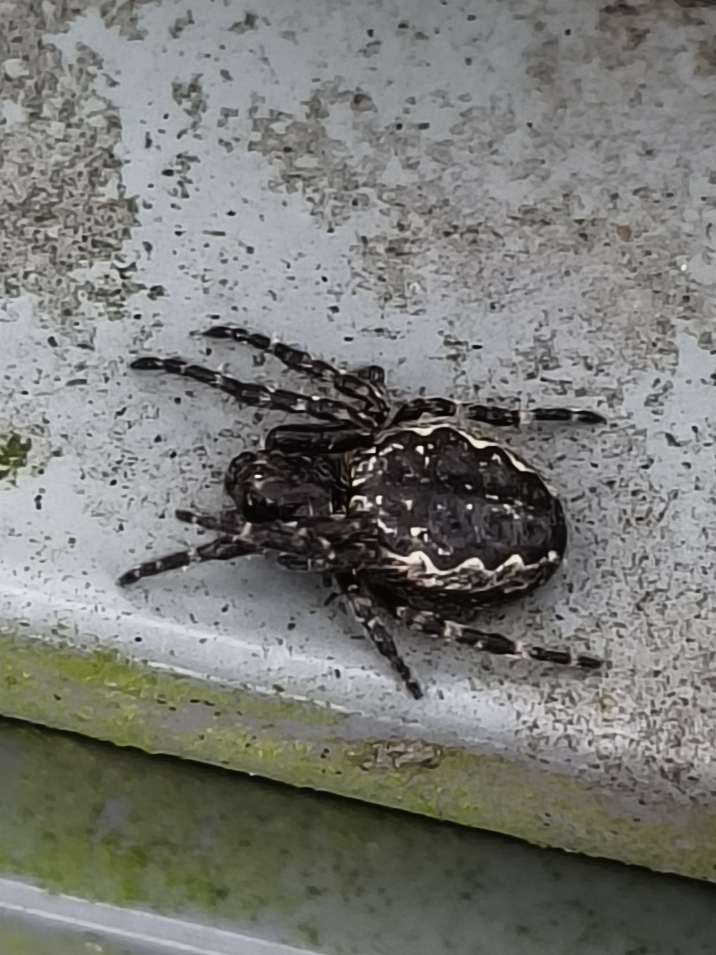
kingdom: Animalia
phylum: Arthropoda
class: Arachnida
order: Araneae
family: Araneidae
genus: Nuctenea
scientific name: Nuctenea umbratica
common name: Toad spider
